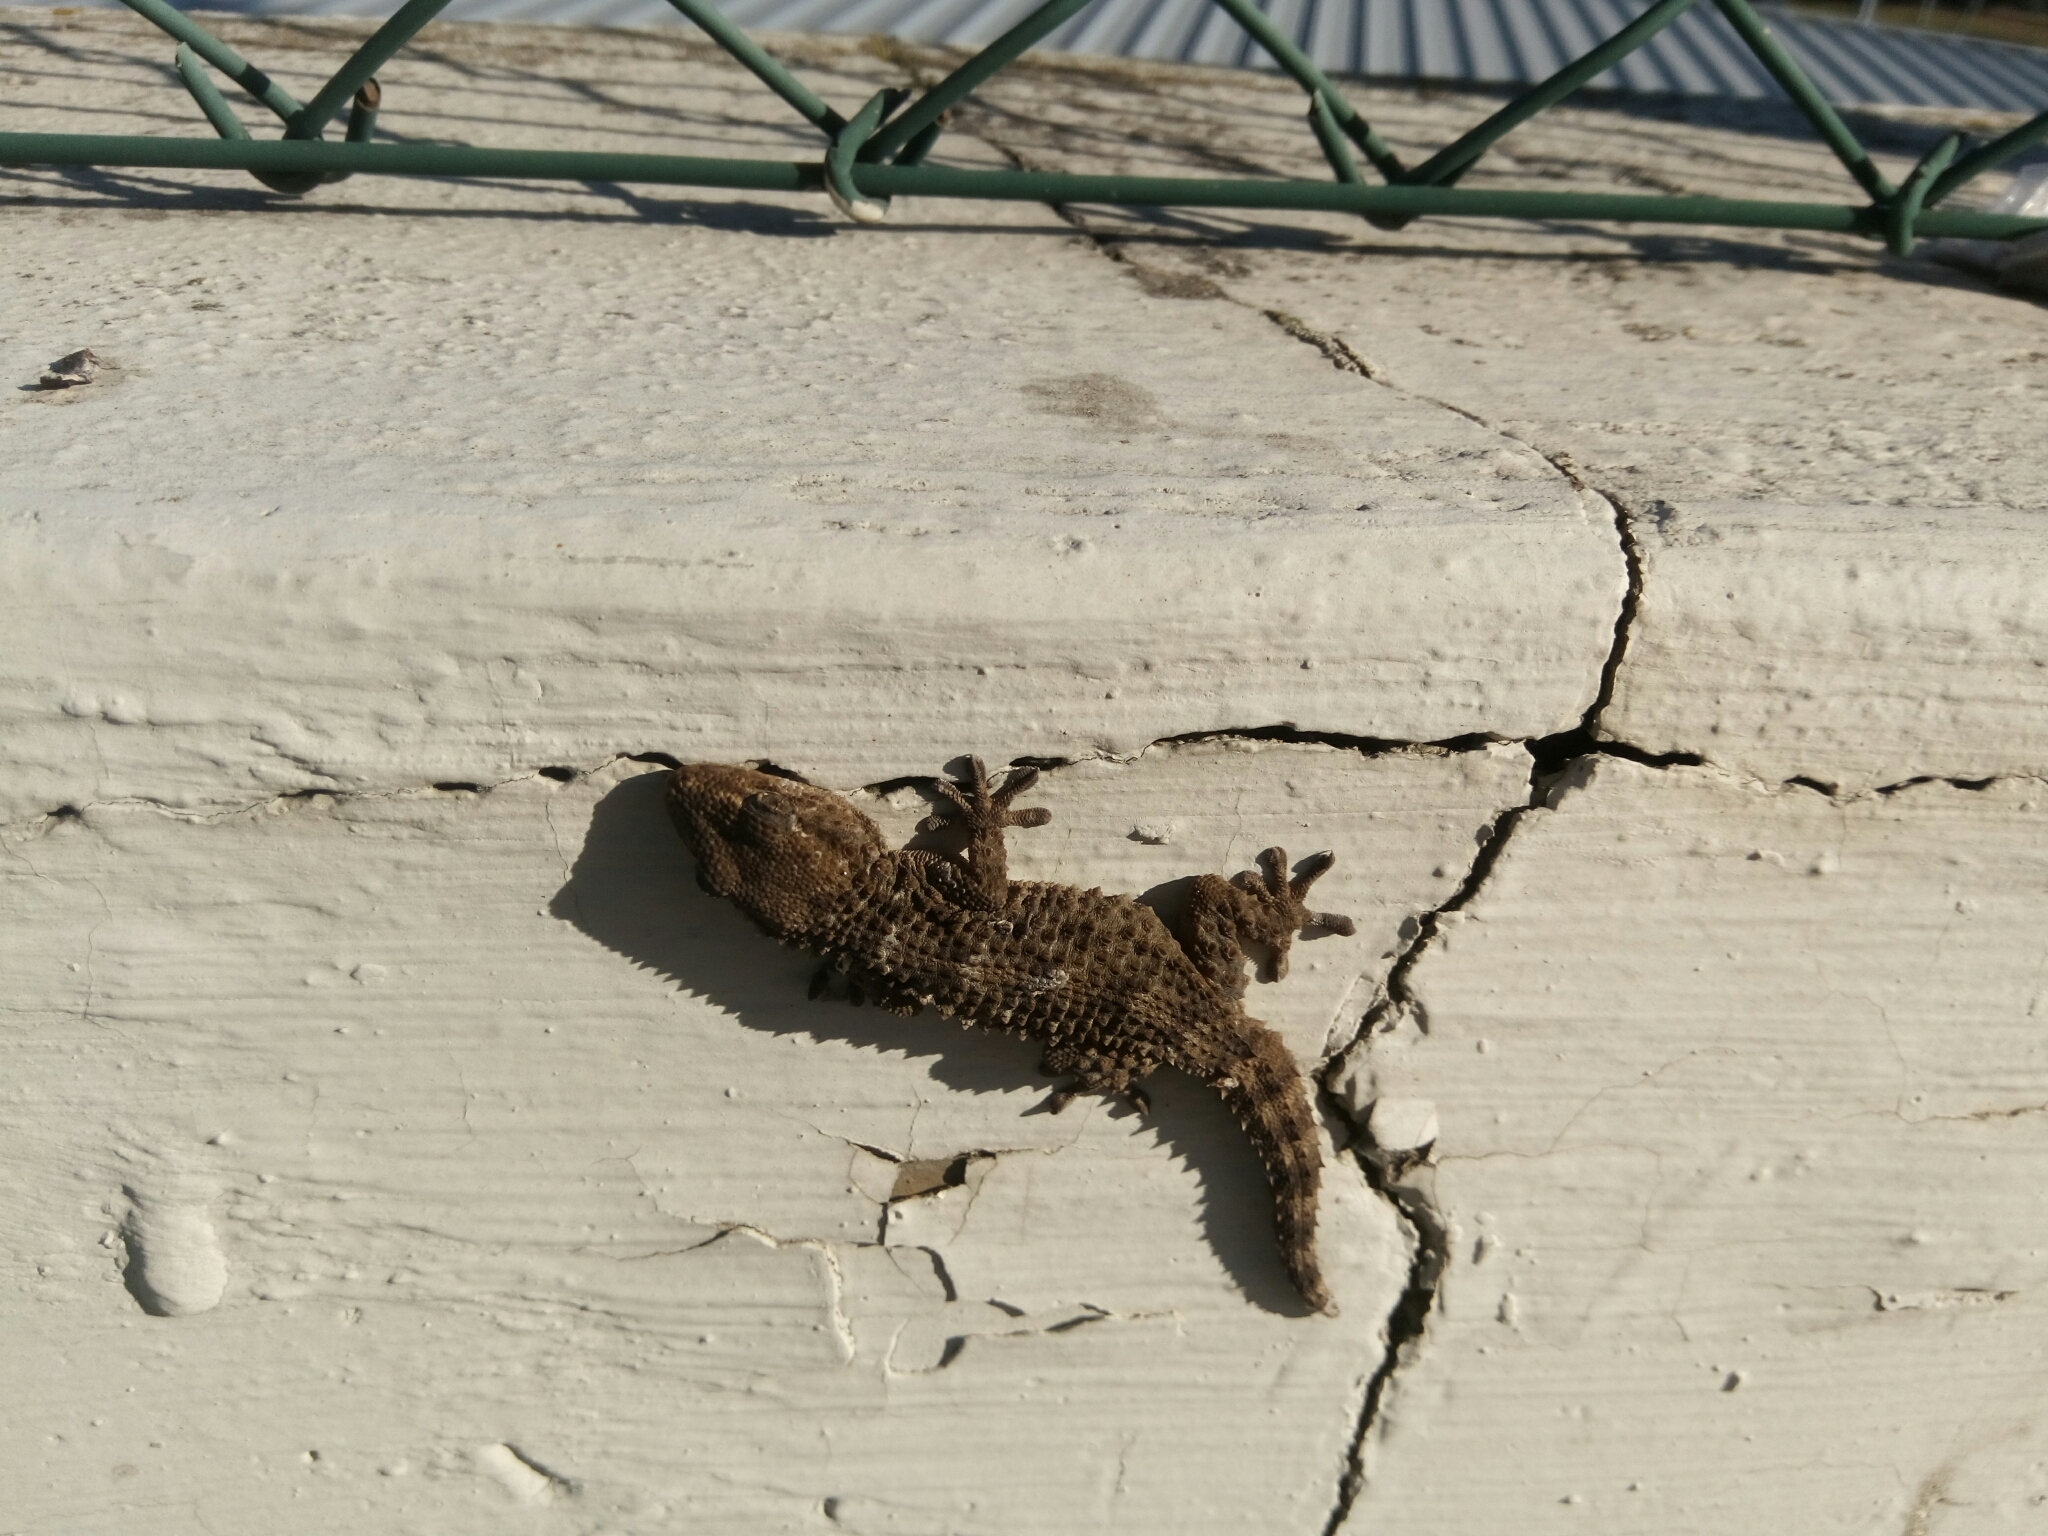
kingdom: Animalia
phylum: Chordata
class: Squamata
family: Phyllodactylidae
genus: Tarentola
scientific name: Tarentola mauritanica
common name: Moorish gecko
